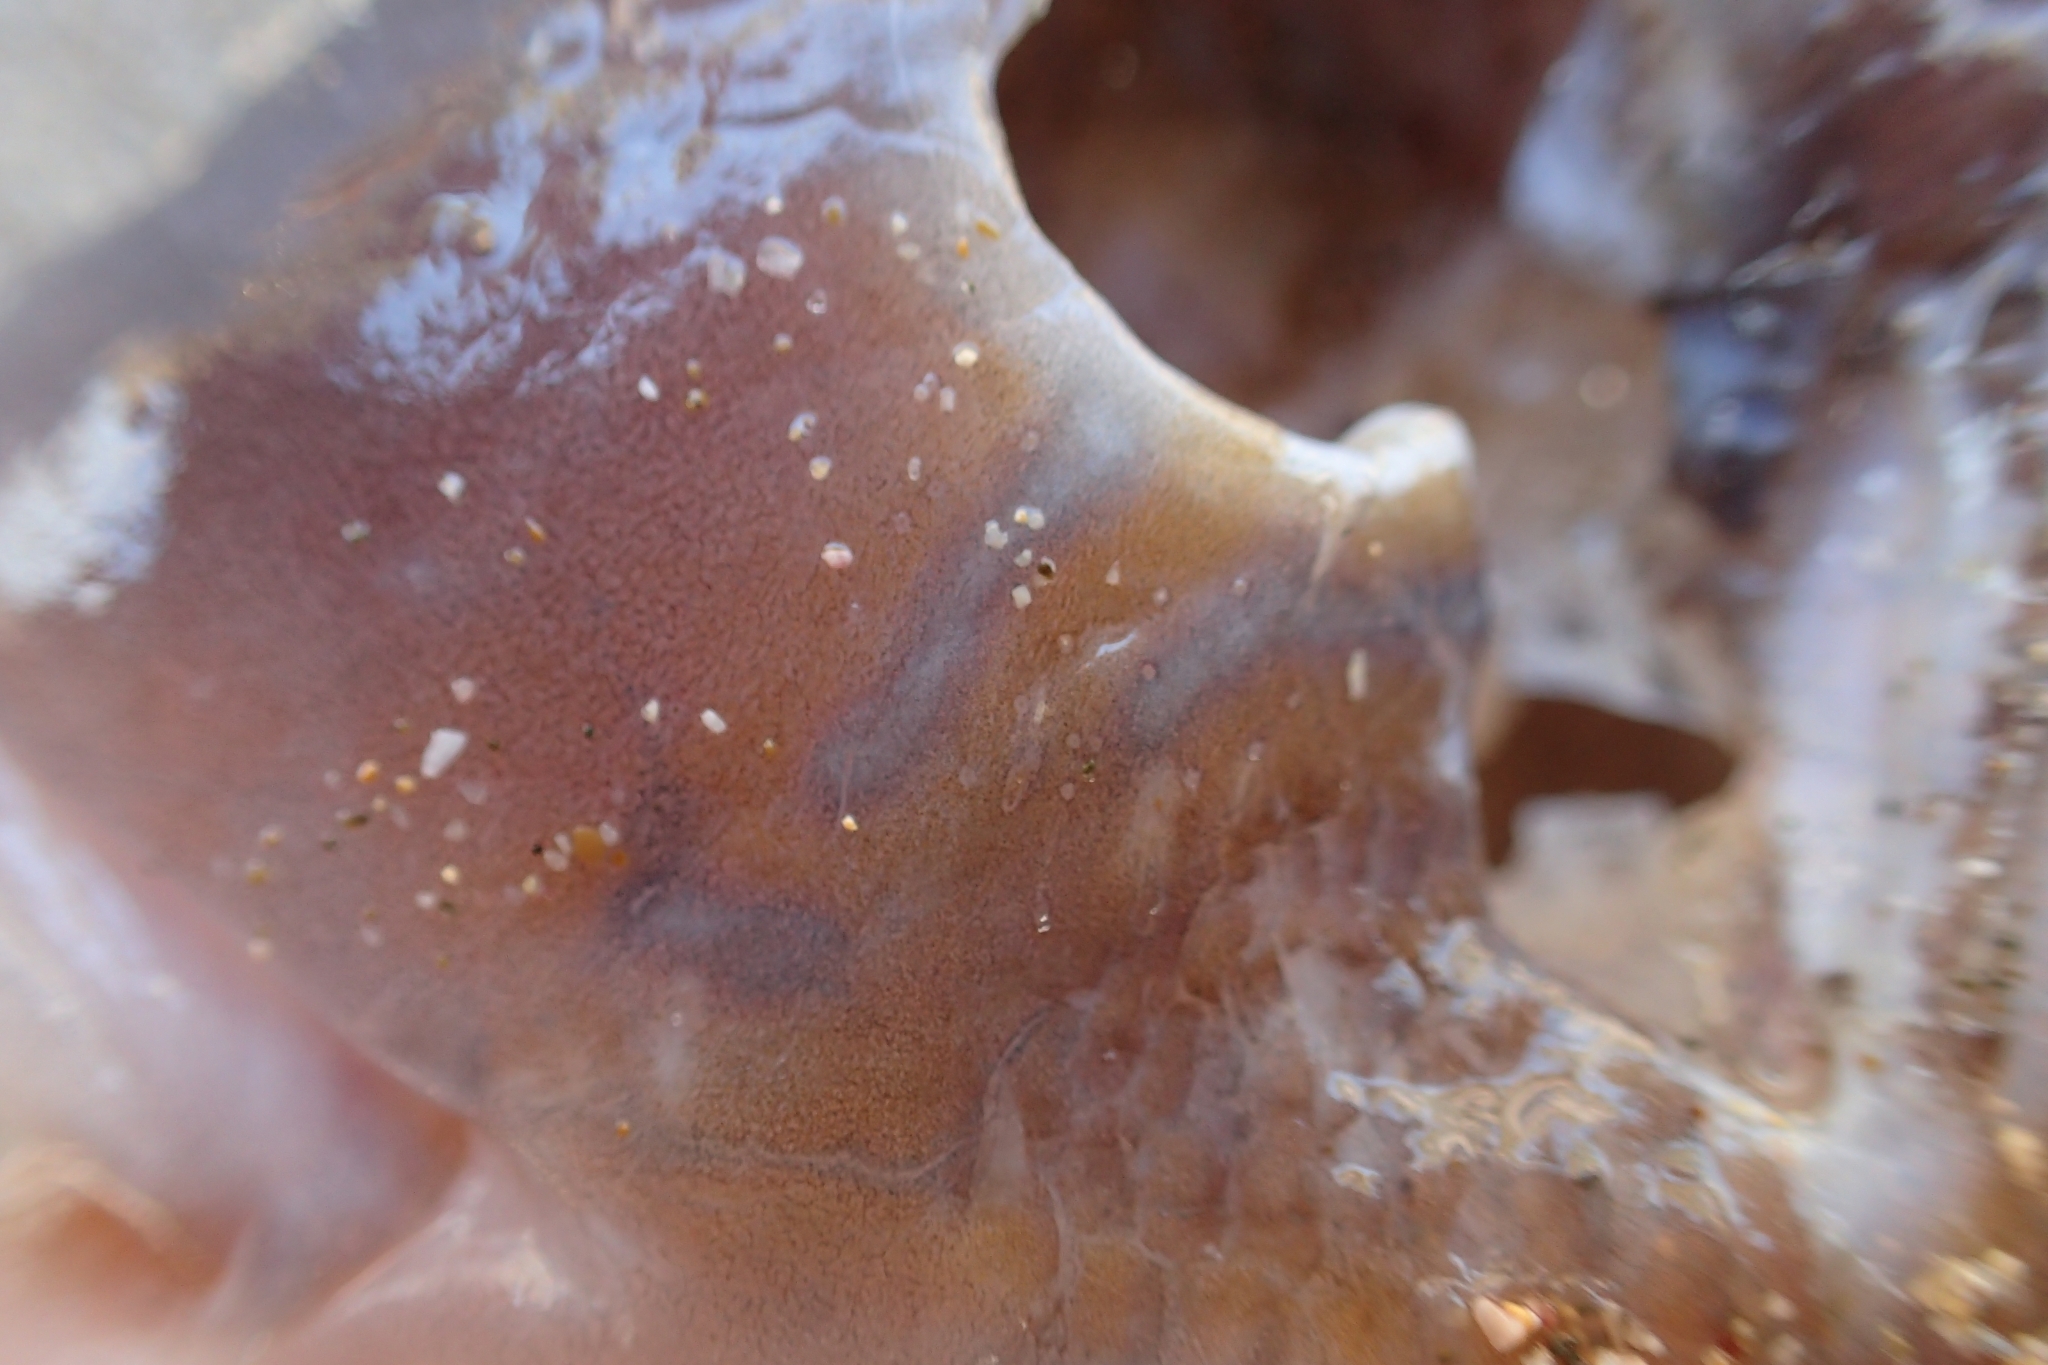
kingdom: Animalia
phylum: Chordata
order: Perciformes
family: Labridae
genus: Notolabrus
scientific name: Notolabrus celidotus
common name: Spotty
